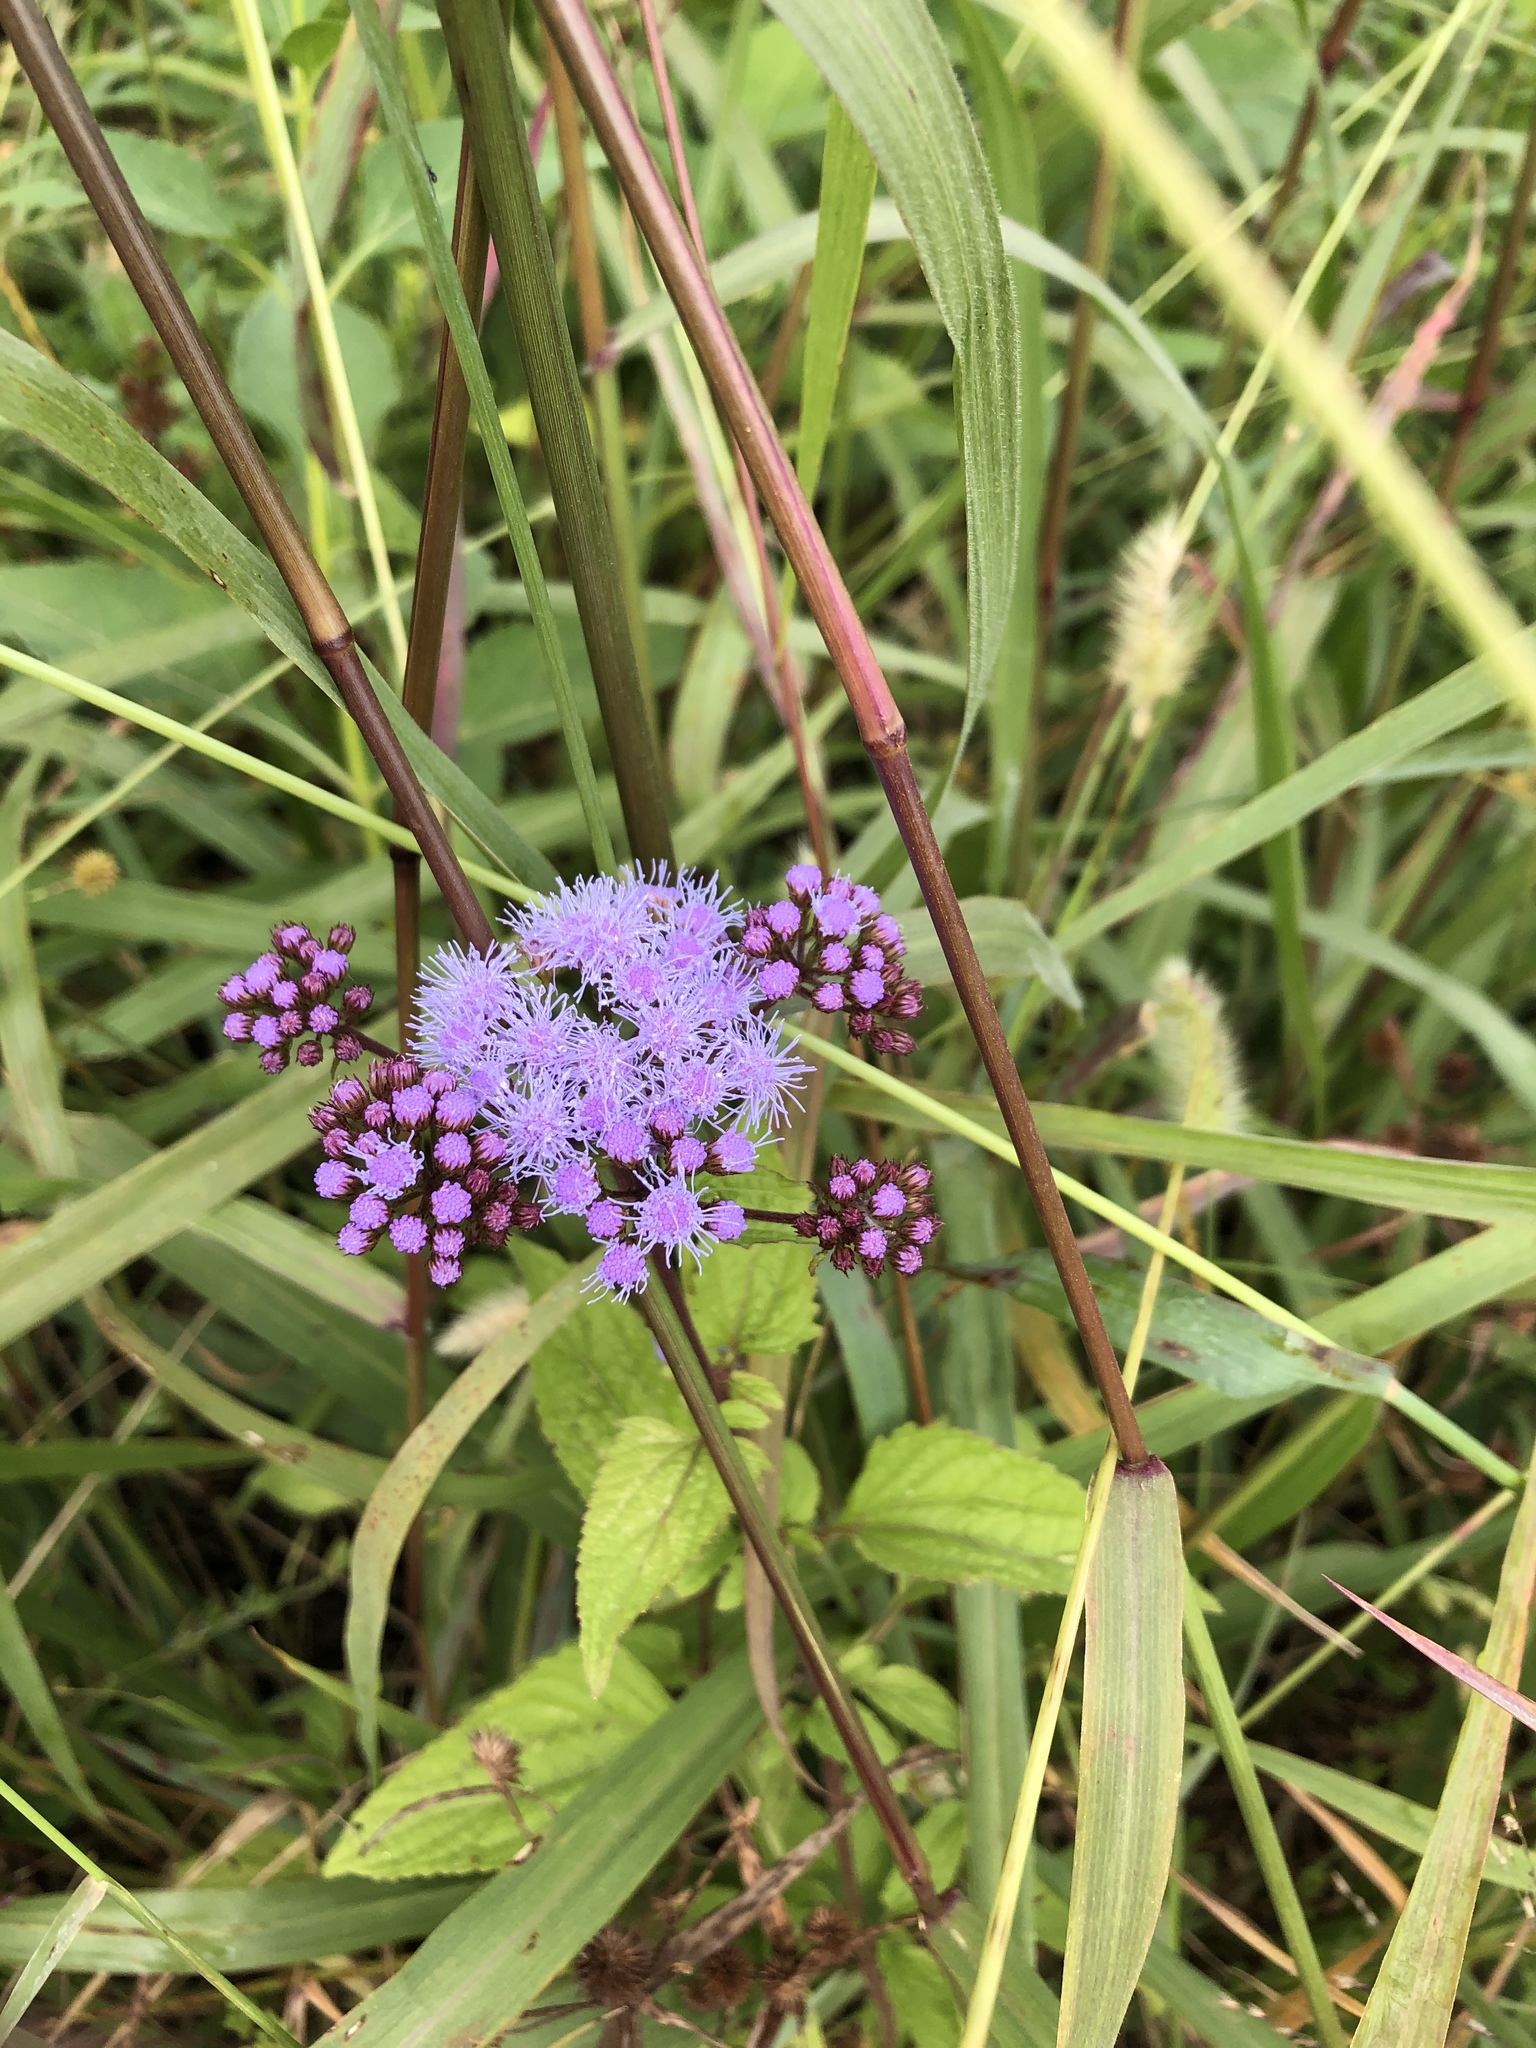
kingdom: Plantae
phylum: Tracheophyta
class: Magnoliopsida
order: Asterales
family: Asteraceae
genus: Conoclinium
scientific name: Conoclinium coelestinum
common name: Blue mistflower
